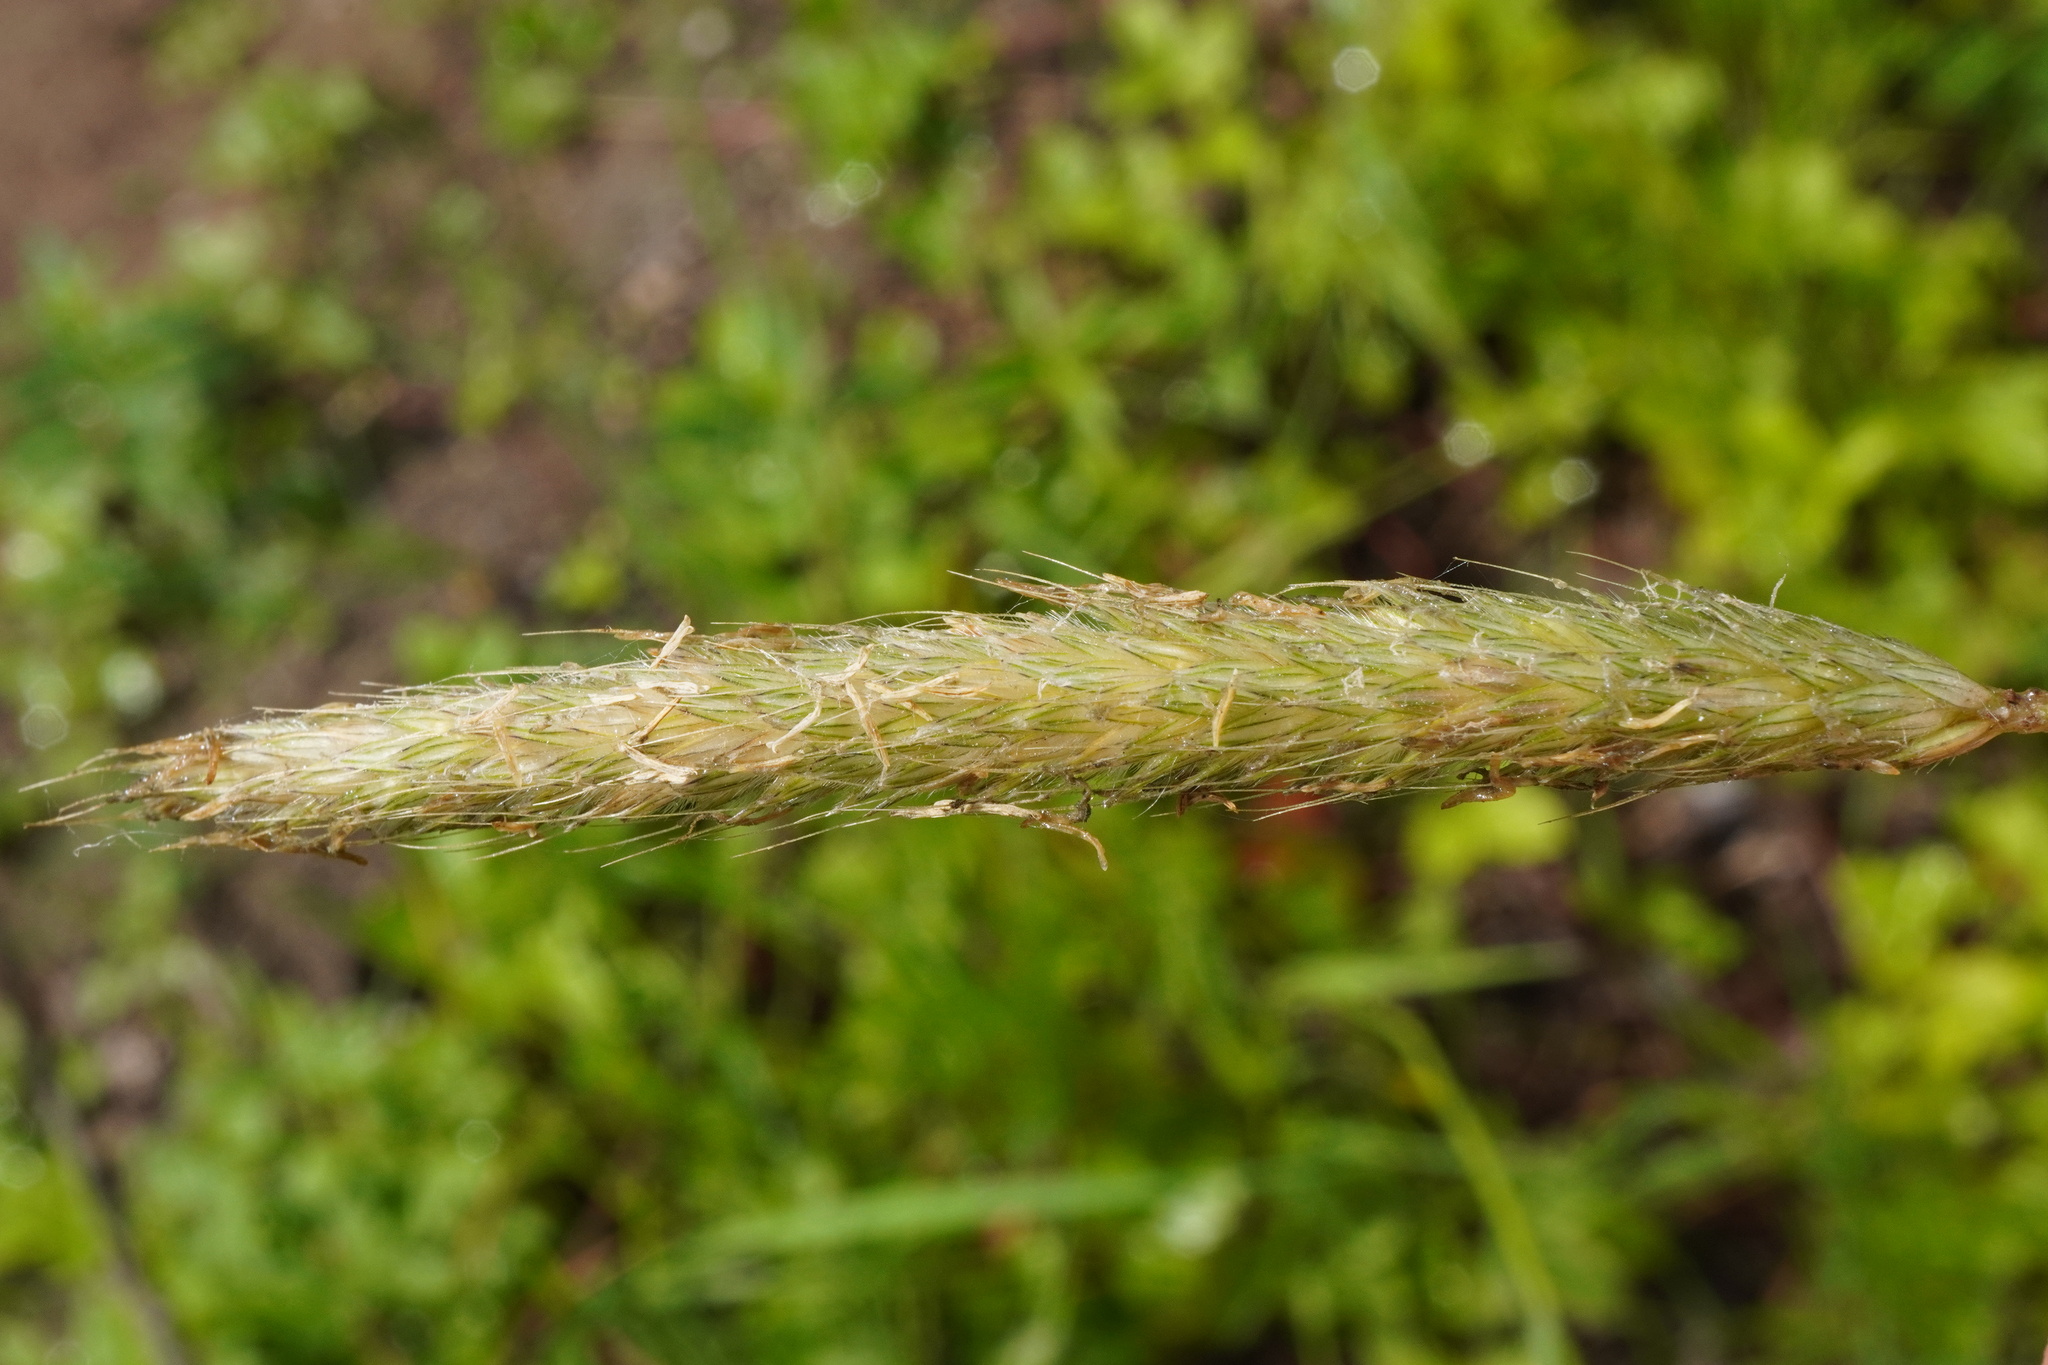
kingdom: Plantae
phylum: Tracheophyta
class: Liliopsida
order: Poales
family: Poaceae
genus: Alopecurus
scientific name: Alopecurus pratensis
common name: Meadow foxtail
